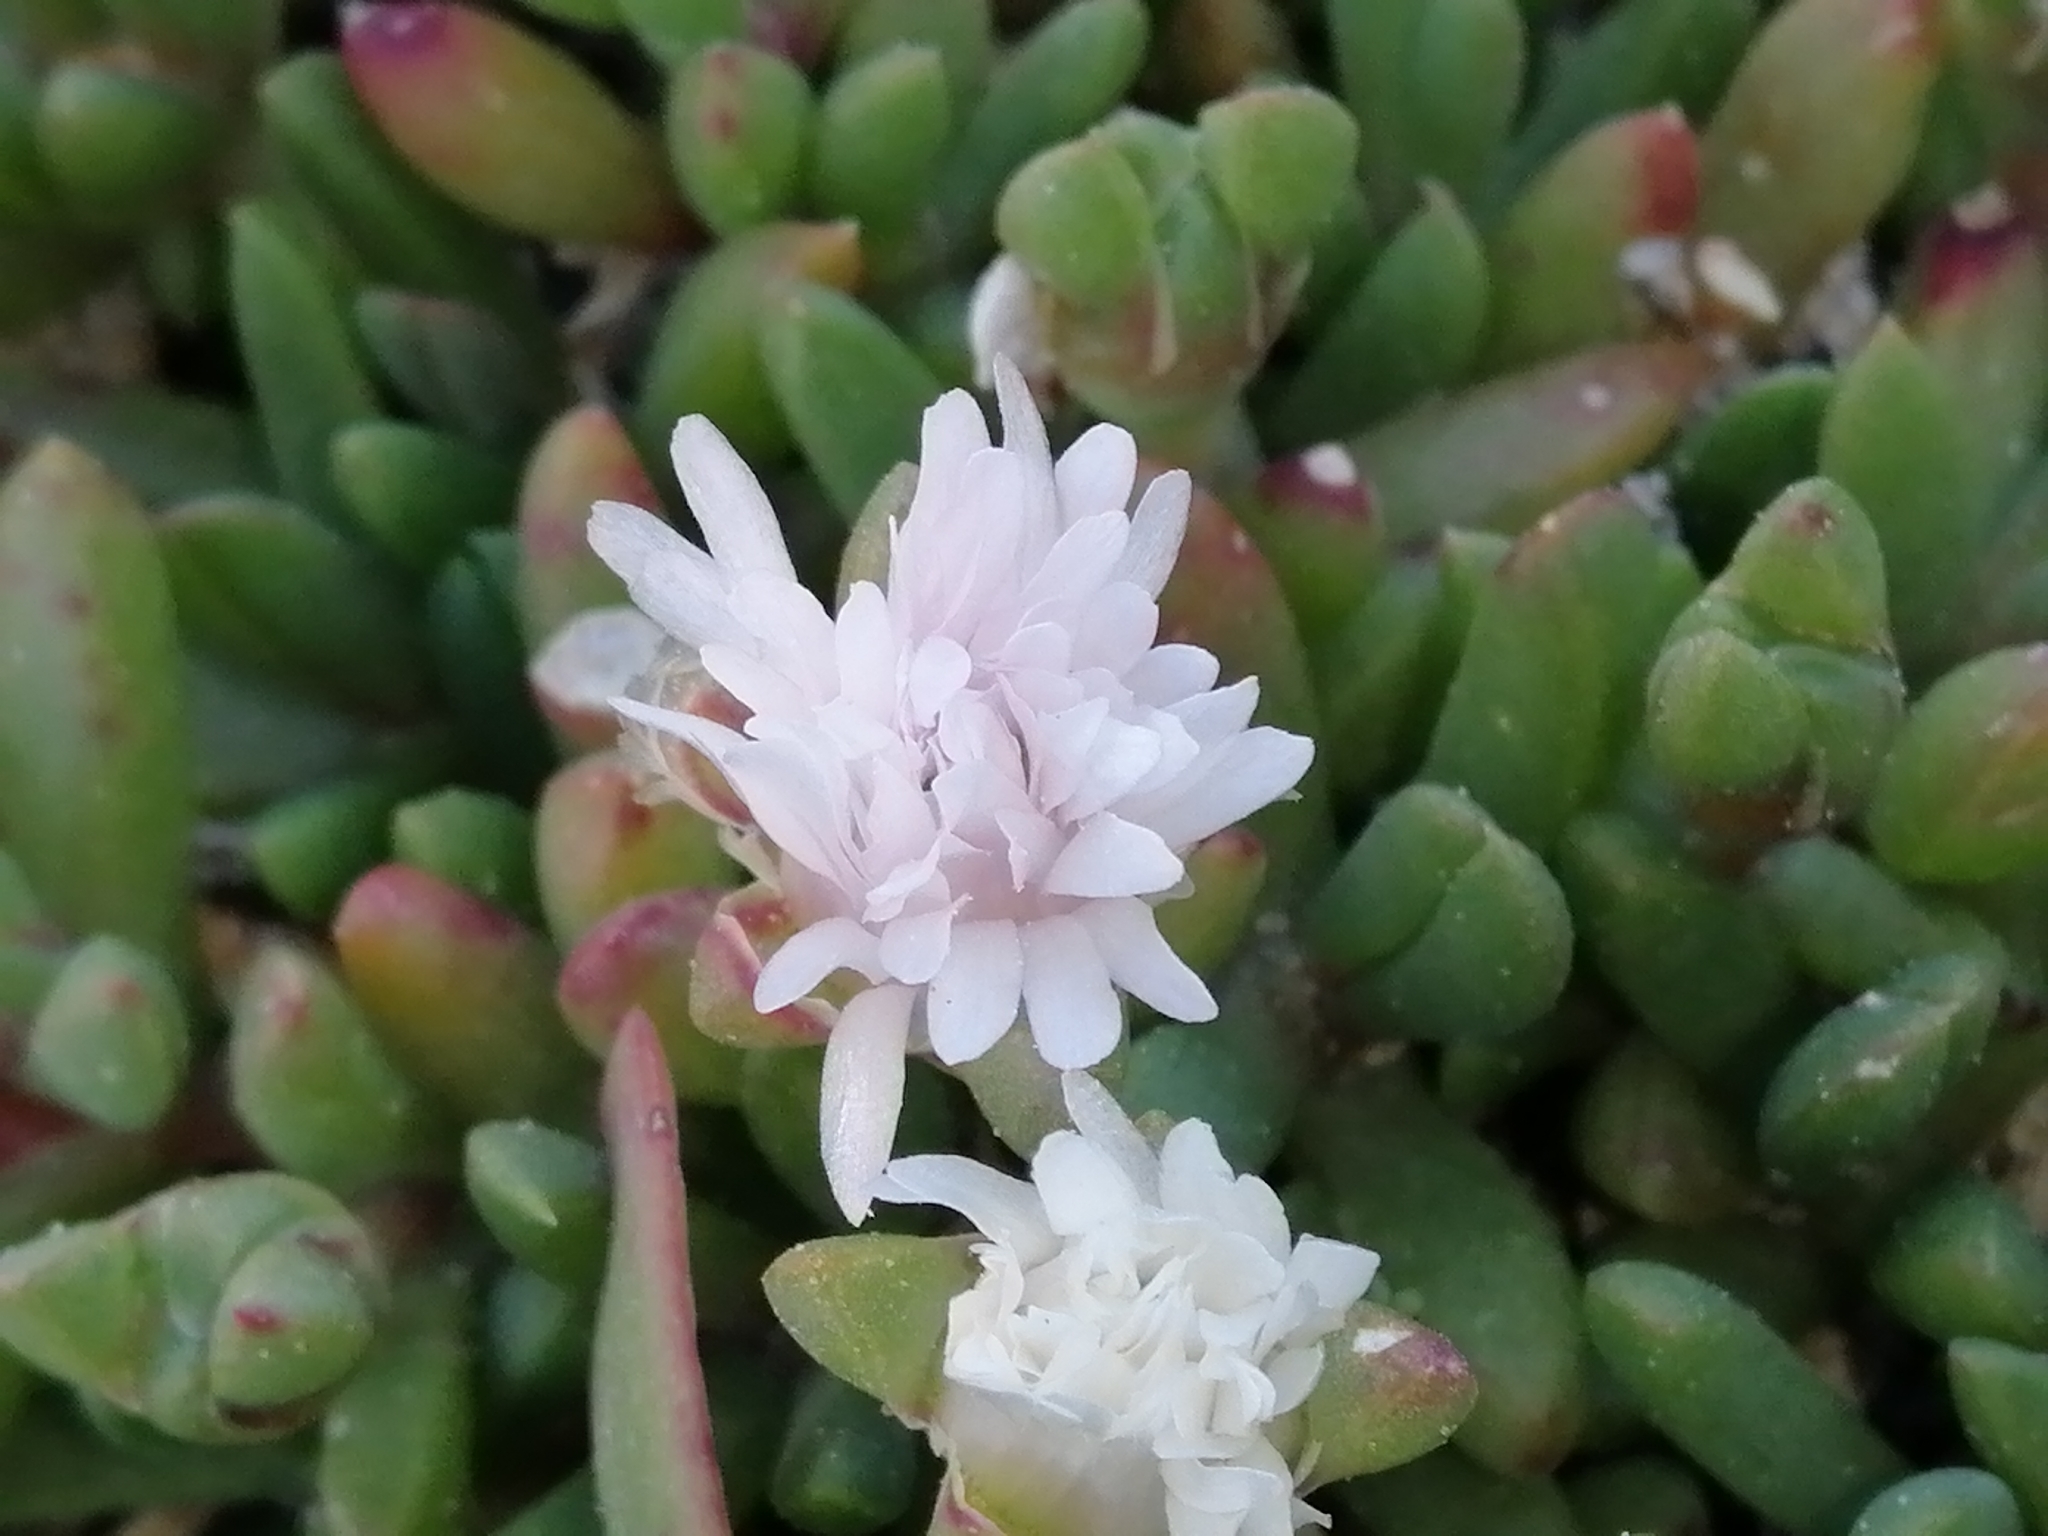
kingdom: Plantae
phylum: Tracheophyta
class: Magnoliopsida
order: Caryophyllales
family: Aizoaceae
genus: Disphyma
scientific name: Disphyma australe
